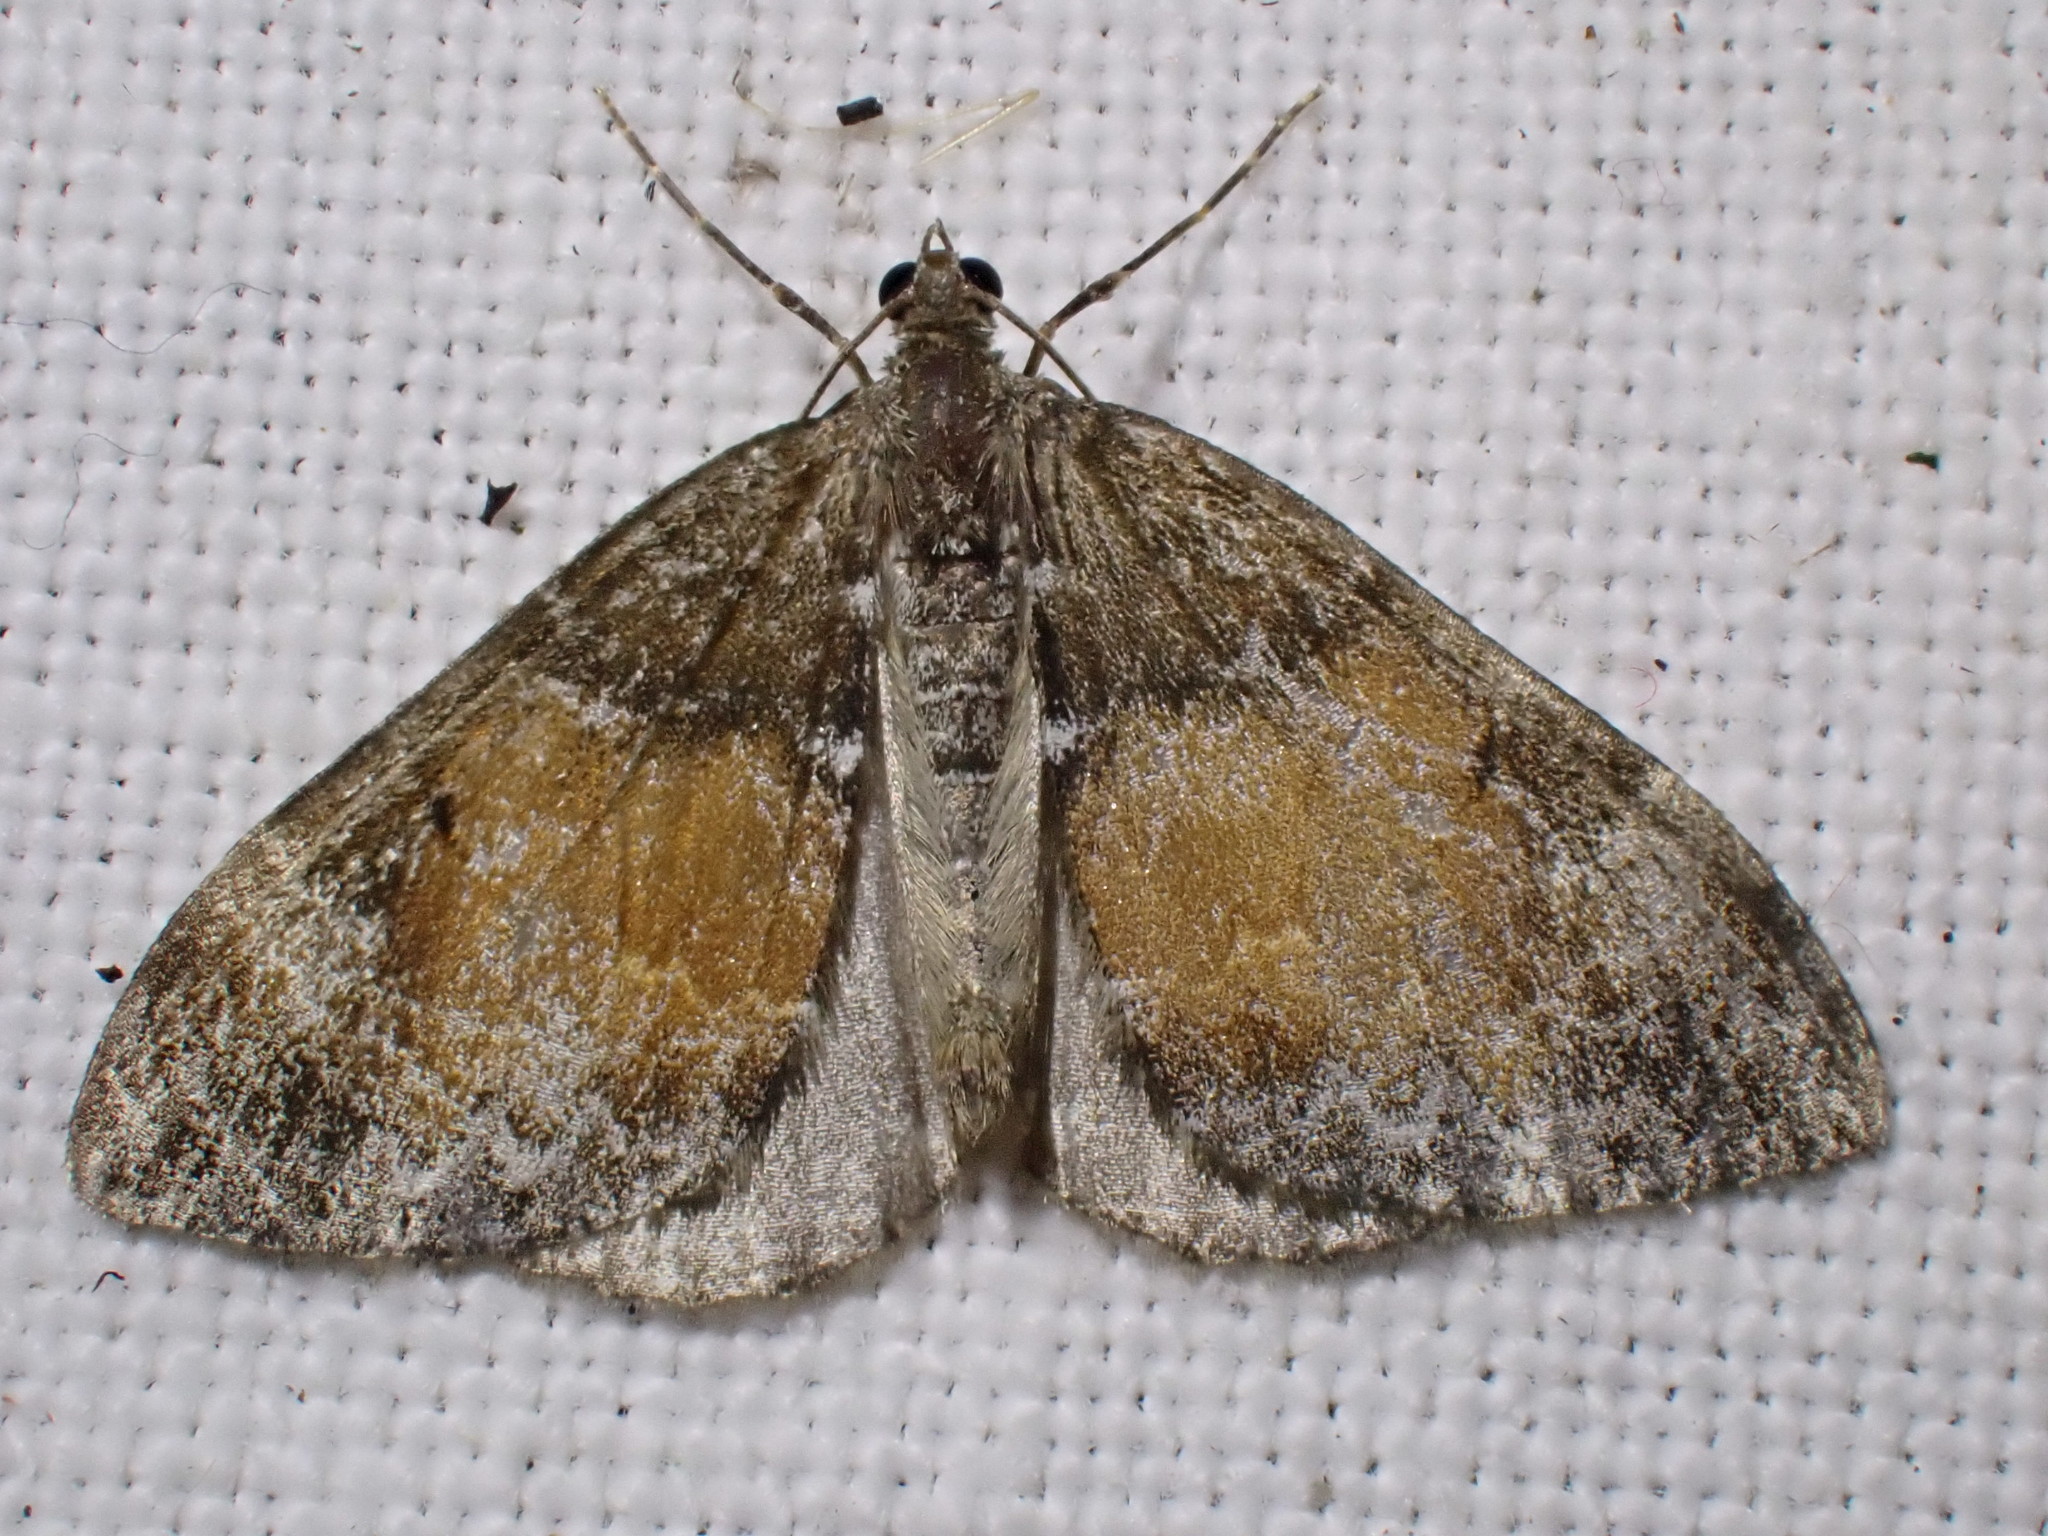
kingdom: Animalia
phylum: Arthropoda
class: Insecta
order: Lepidoptera
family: Geometridae
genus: Dysstroma
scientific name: Dysstroma truncata
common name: Common marbled carpet
